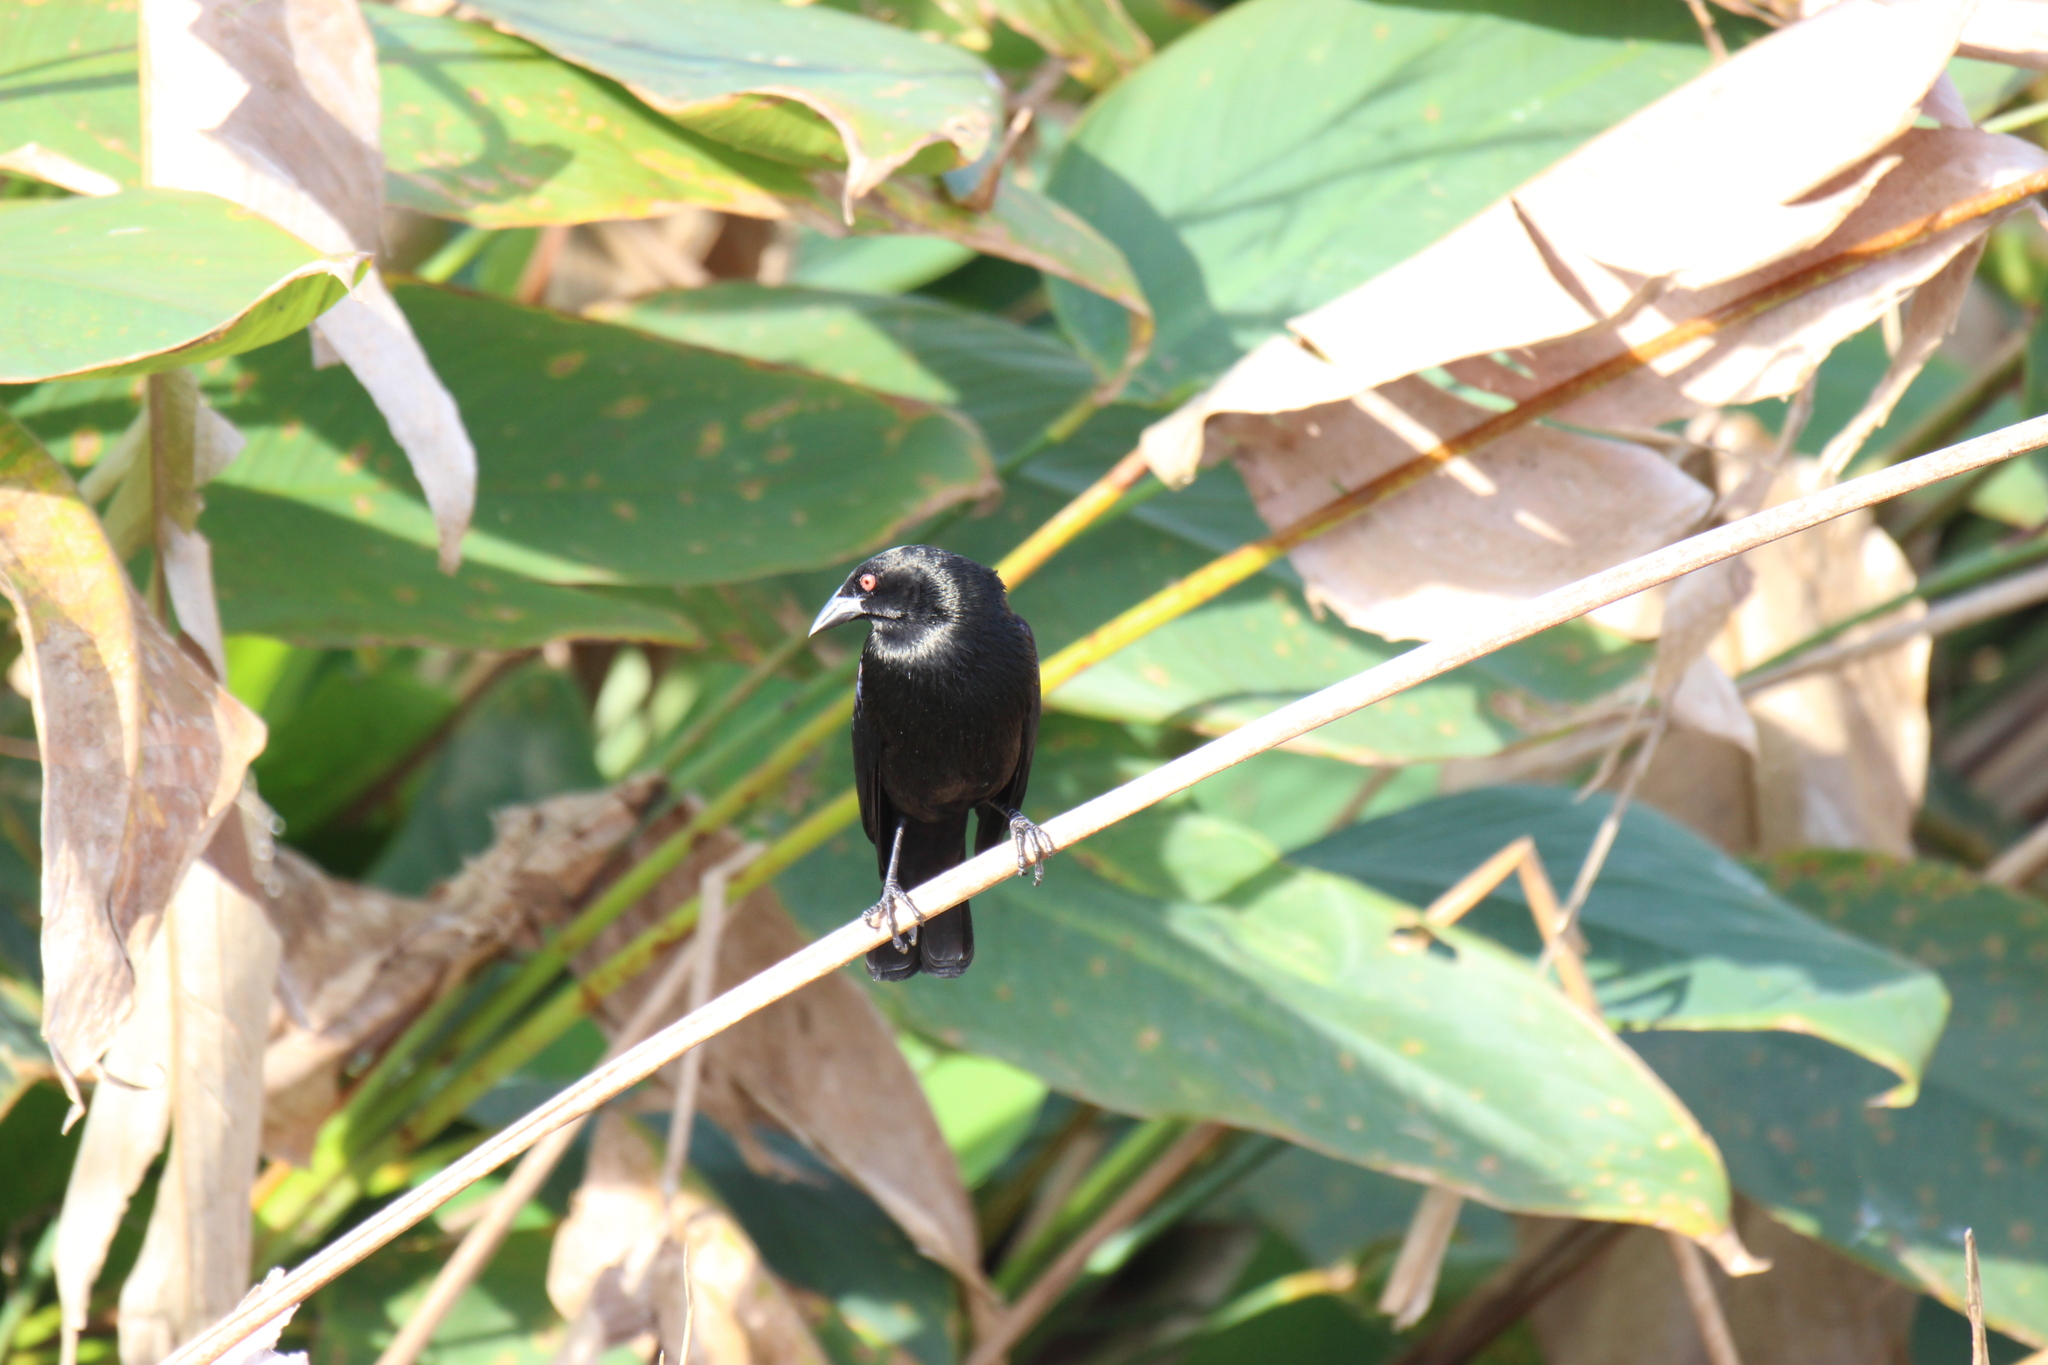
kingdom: Animalia
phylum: Chordata
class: Aves
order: Passeriformes
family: Icteridae
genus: Molothrus
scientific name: Molothrus aeneus
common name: Bronzed cowbird
